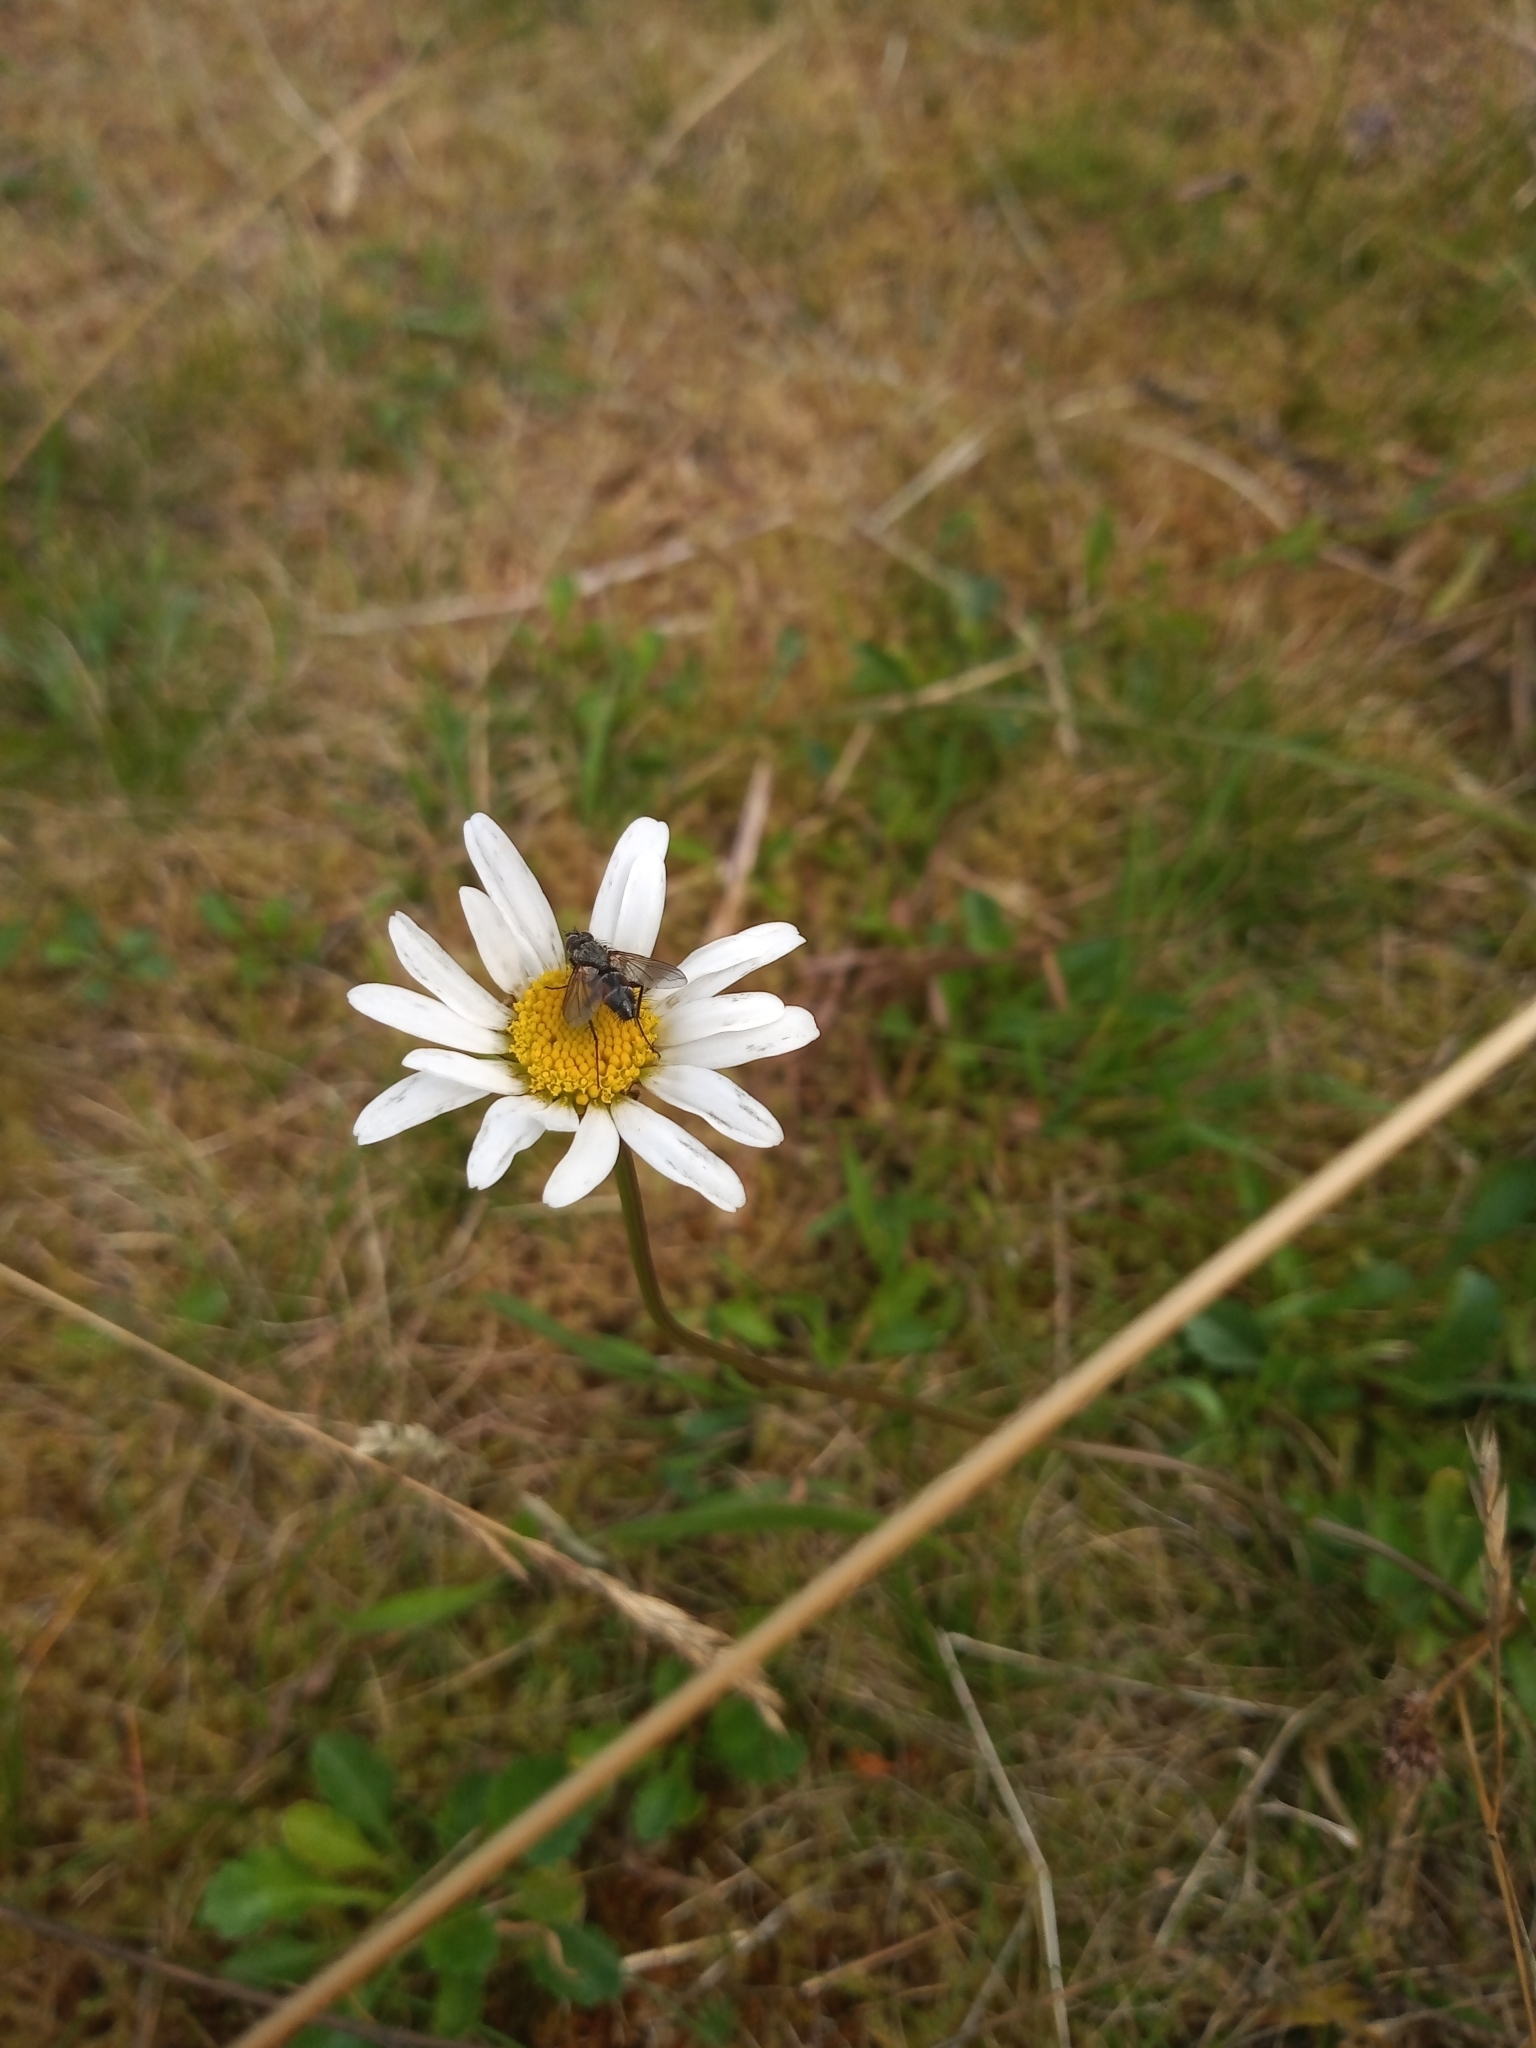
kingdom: Animalia
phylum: Arthropoda
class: Insecta
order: Diptera
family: Tachinidae
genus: Eriothrix
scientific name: Eriothrix rufomaculatus
